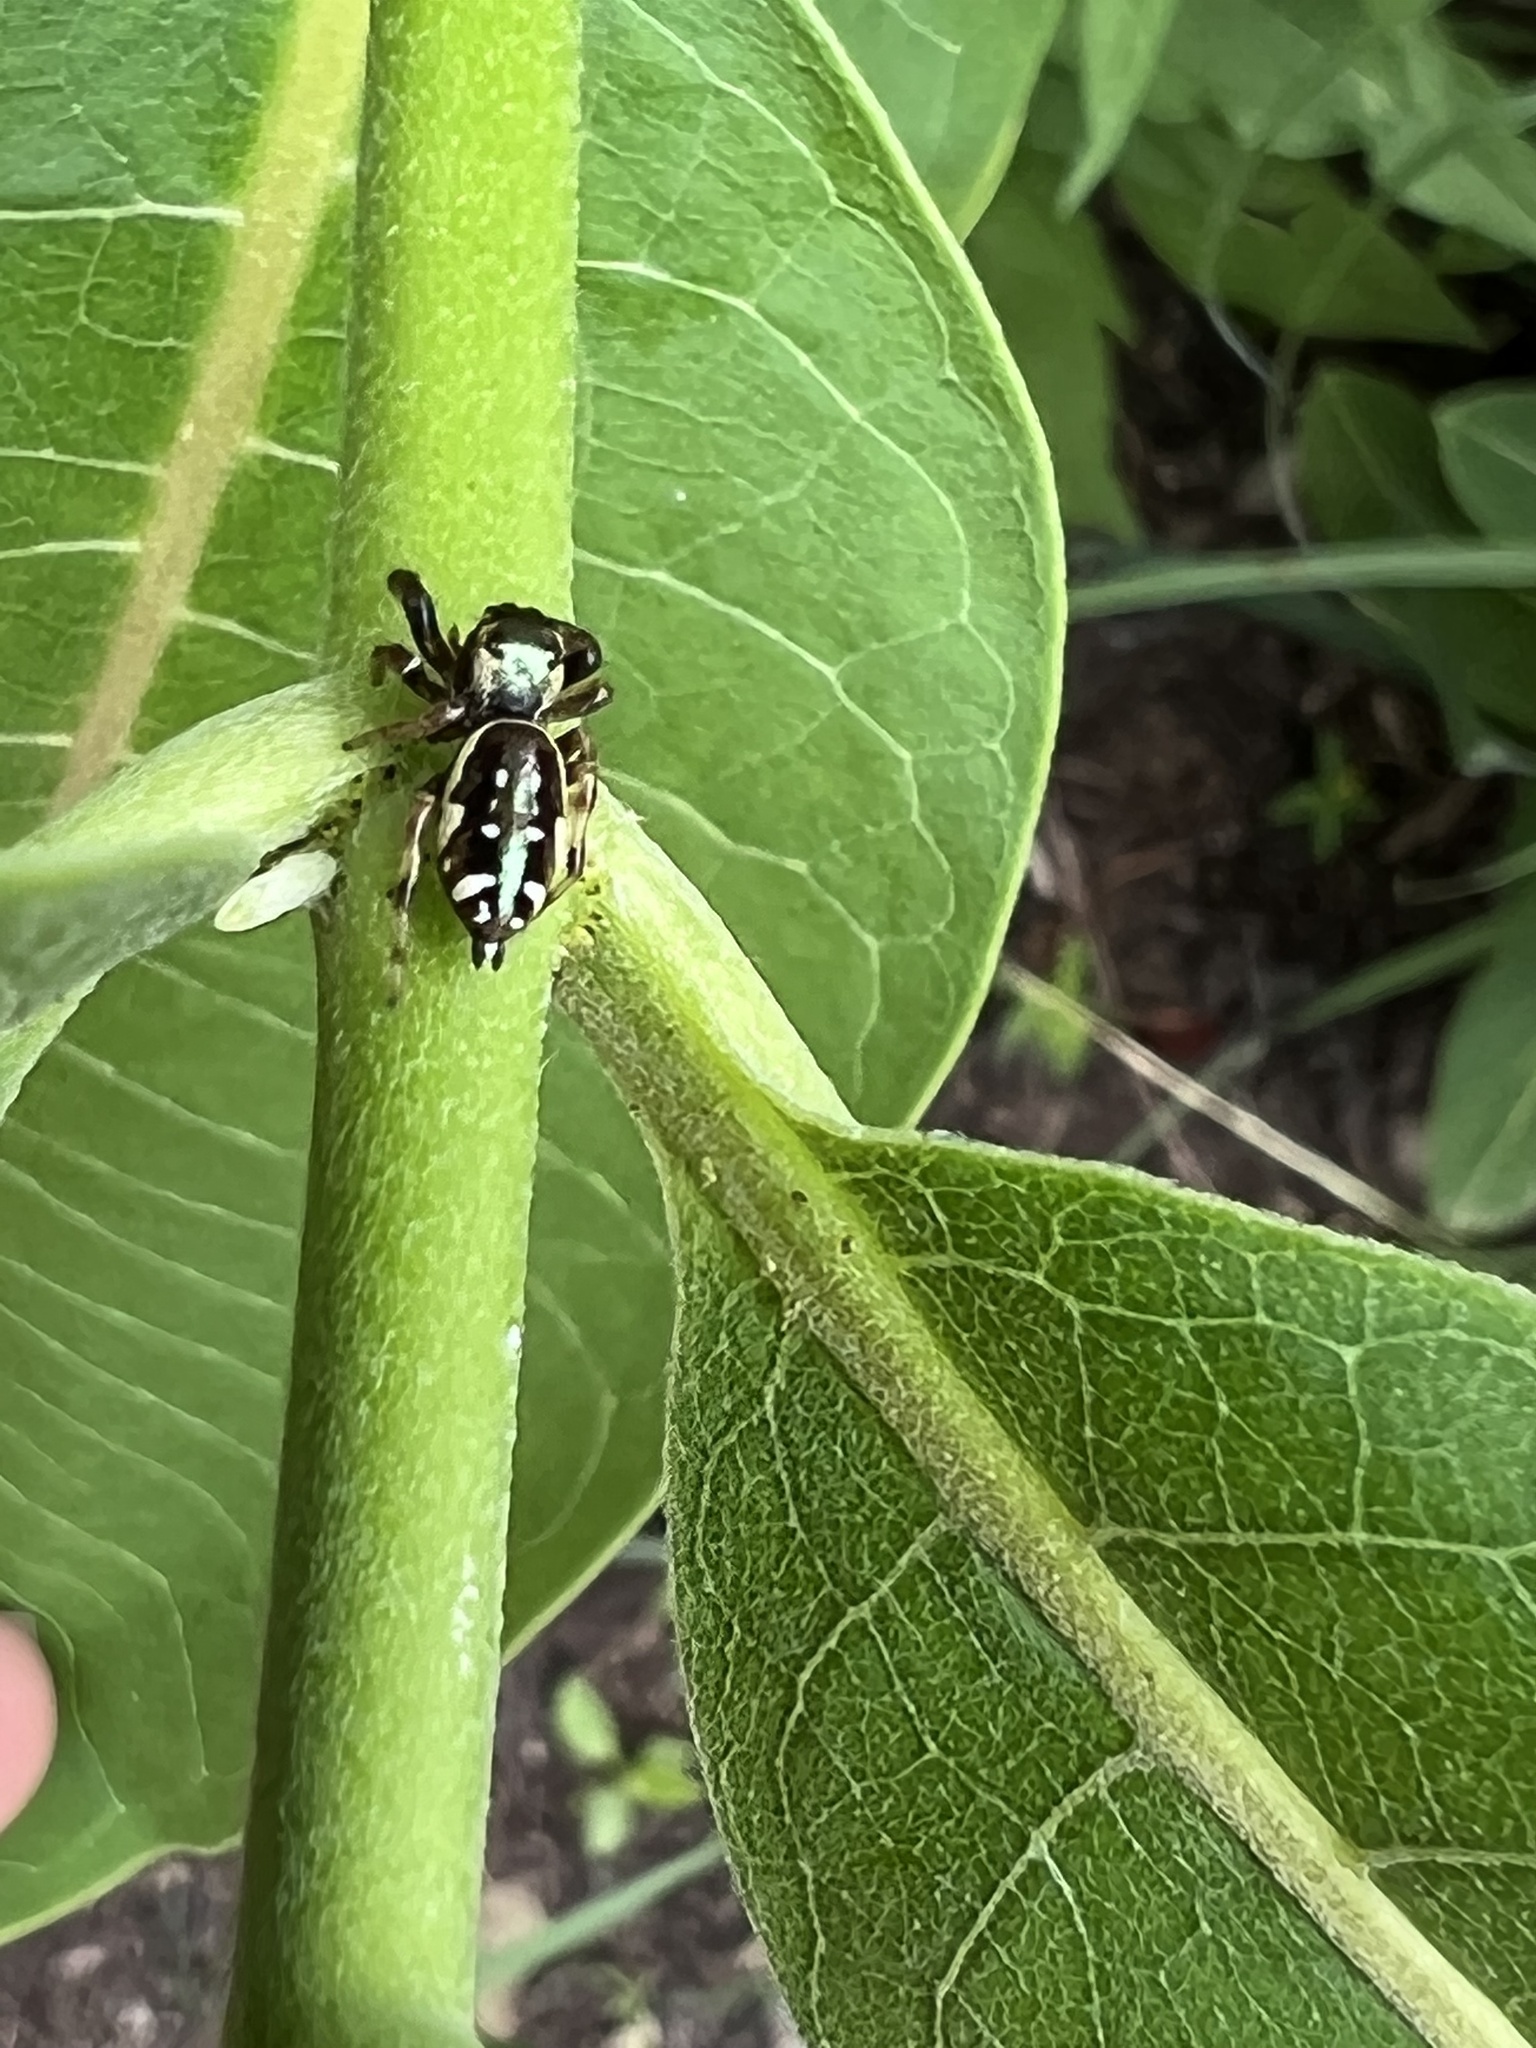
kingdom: Animalia
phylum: Arthropoda
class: Arachnida
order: Araneae
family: Salticidae
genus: Paraphidippus
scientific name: Paraphidippus aurantius
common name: Jumping spiders
